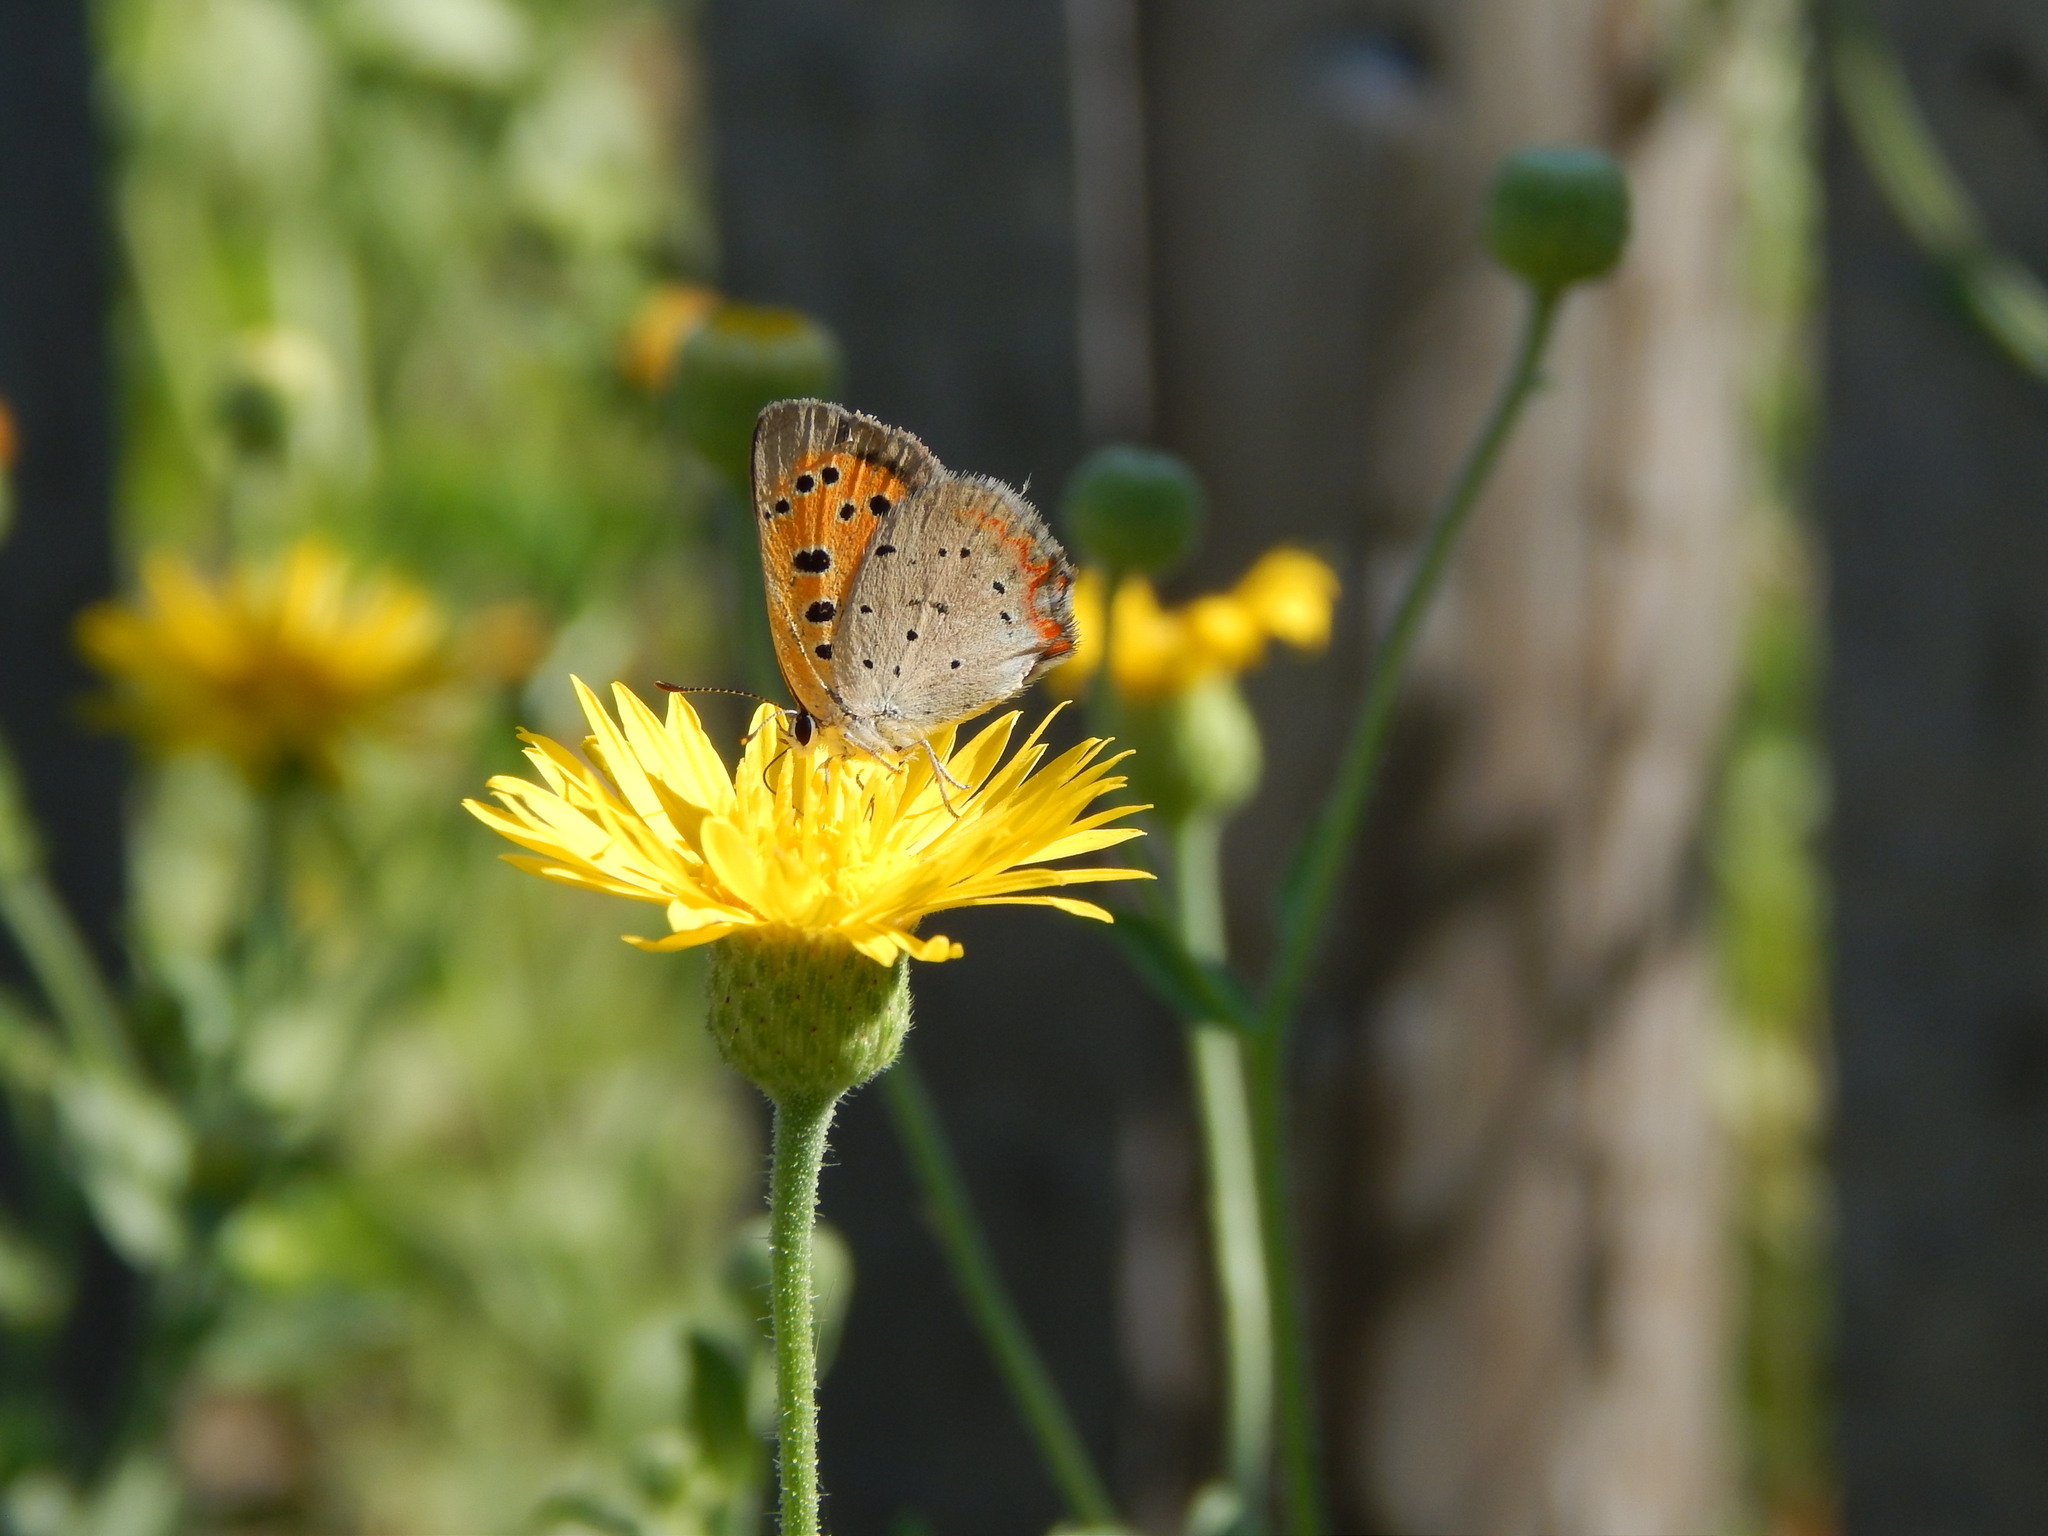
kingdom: Animalia
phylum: Arthropoda
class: Insecta
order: Lepidoptera
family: Lycaenidae
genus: Lycaena
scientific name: Lycaena hypophlaeas
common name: American copper
